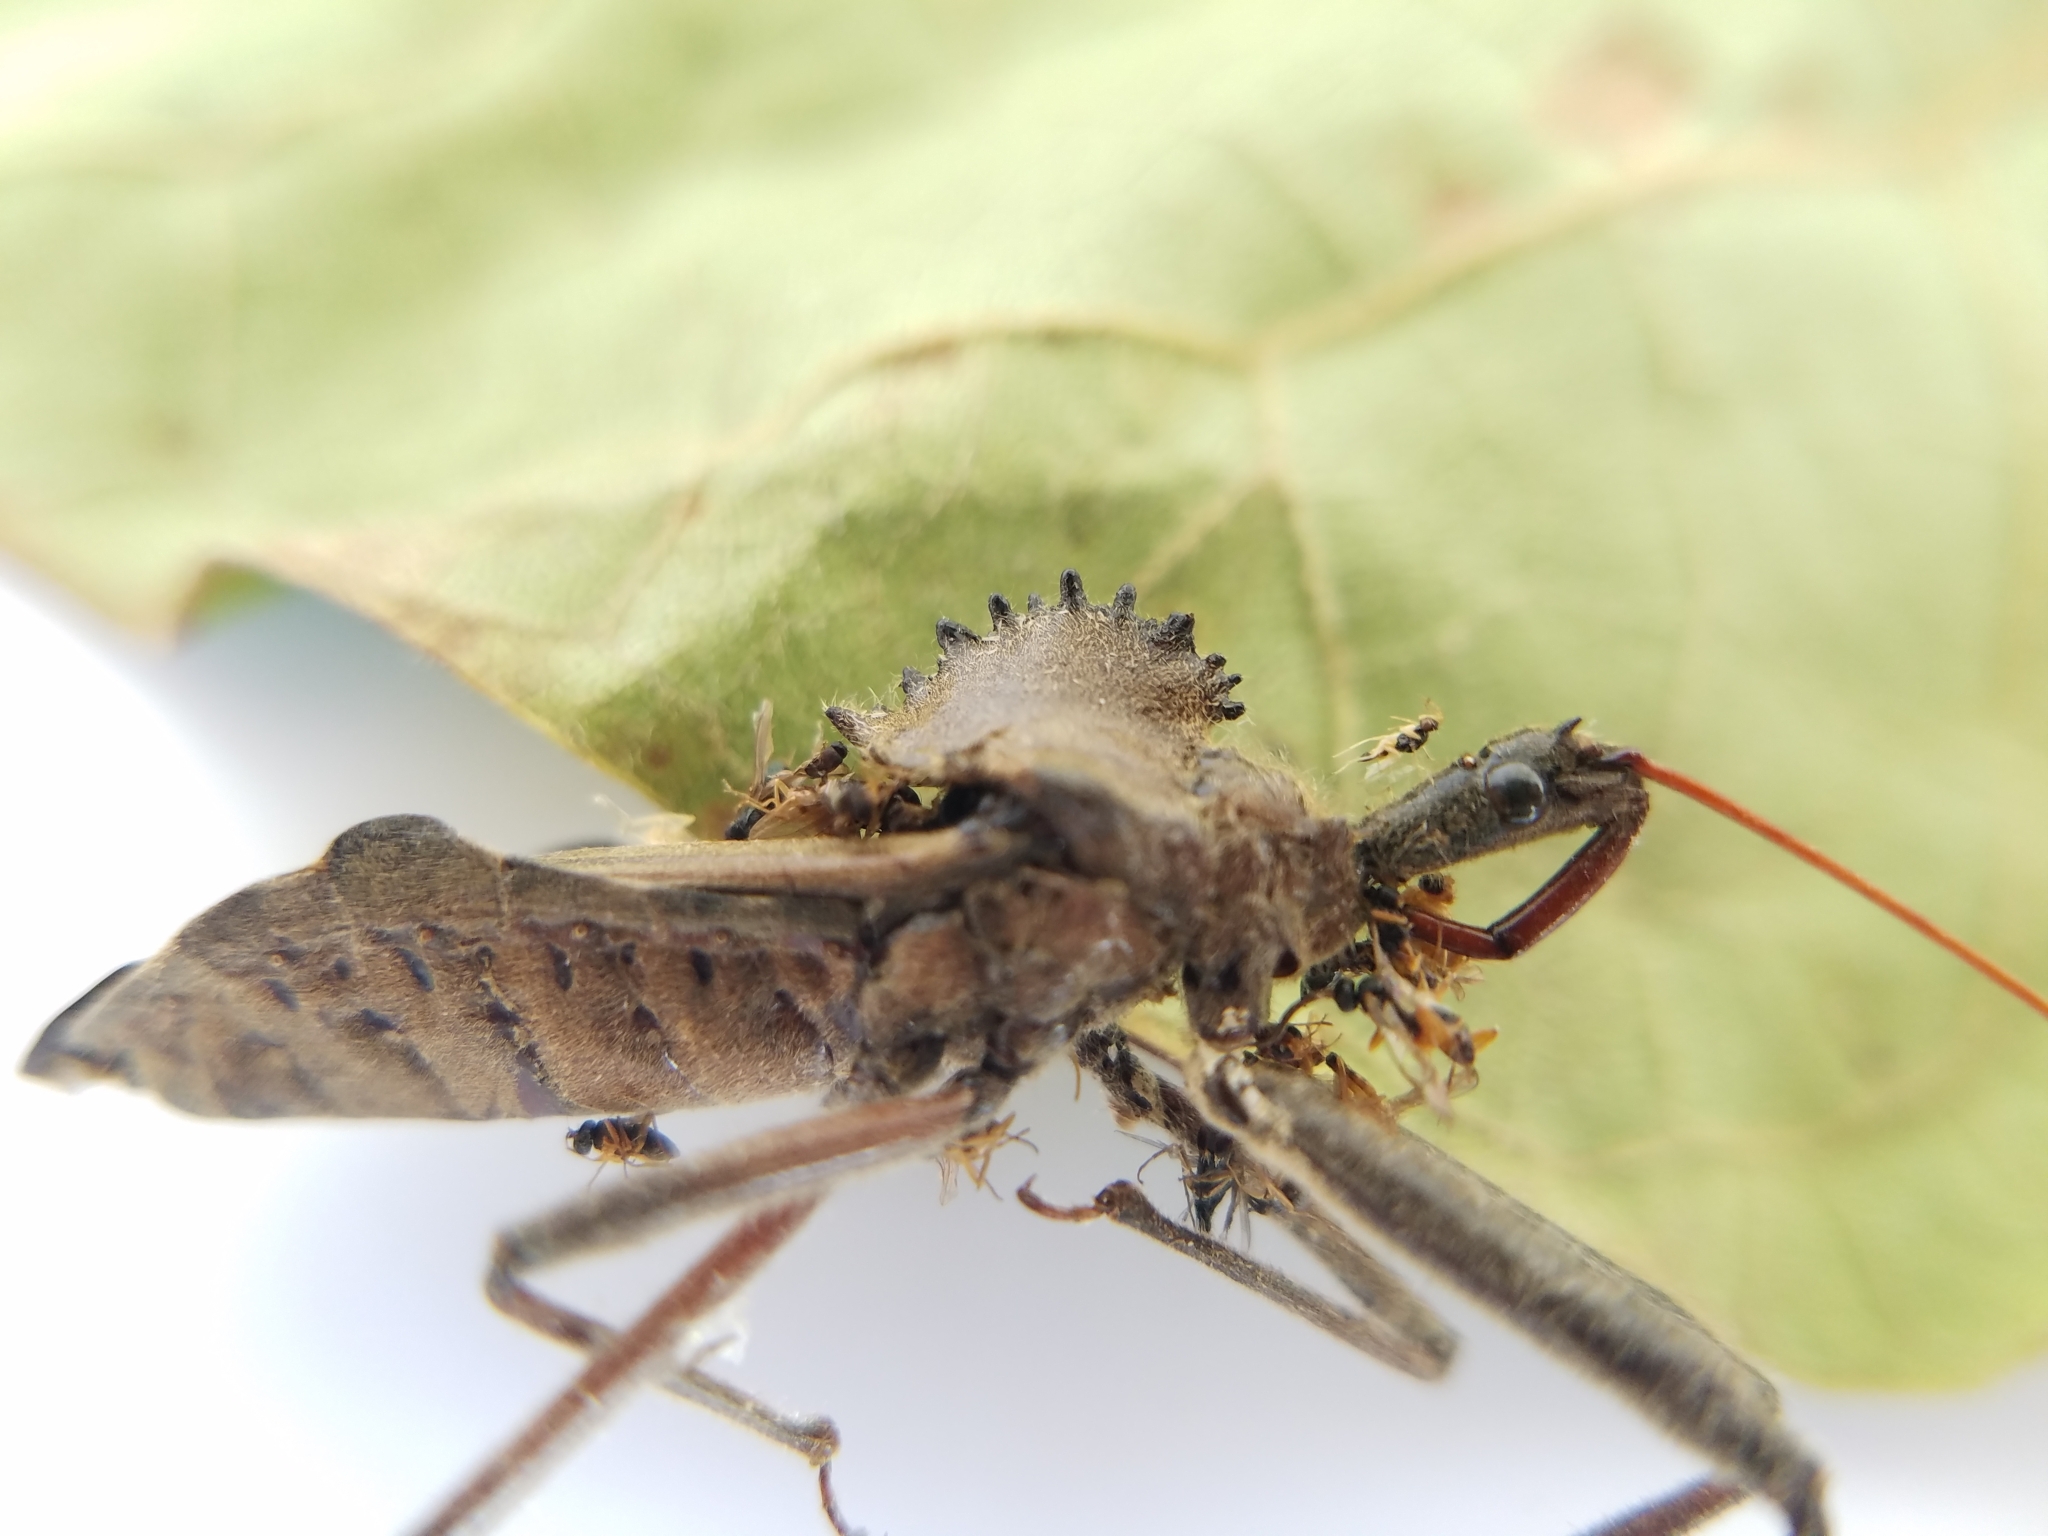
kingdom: Animalia
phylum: Arthropoda
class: Insecta
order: Hemiptera
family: Reduviidae
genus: Arilus
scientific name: Arilus cristatus
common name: North american wheel bug
